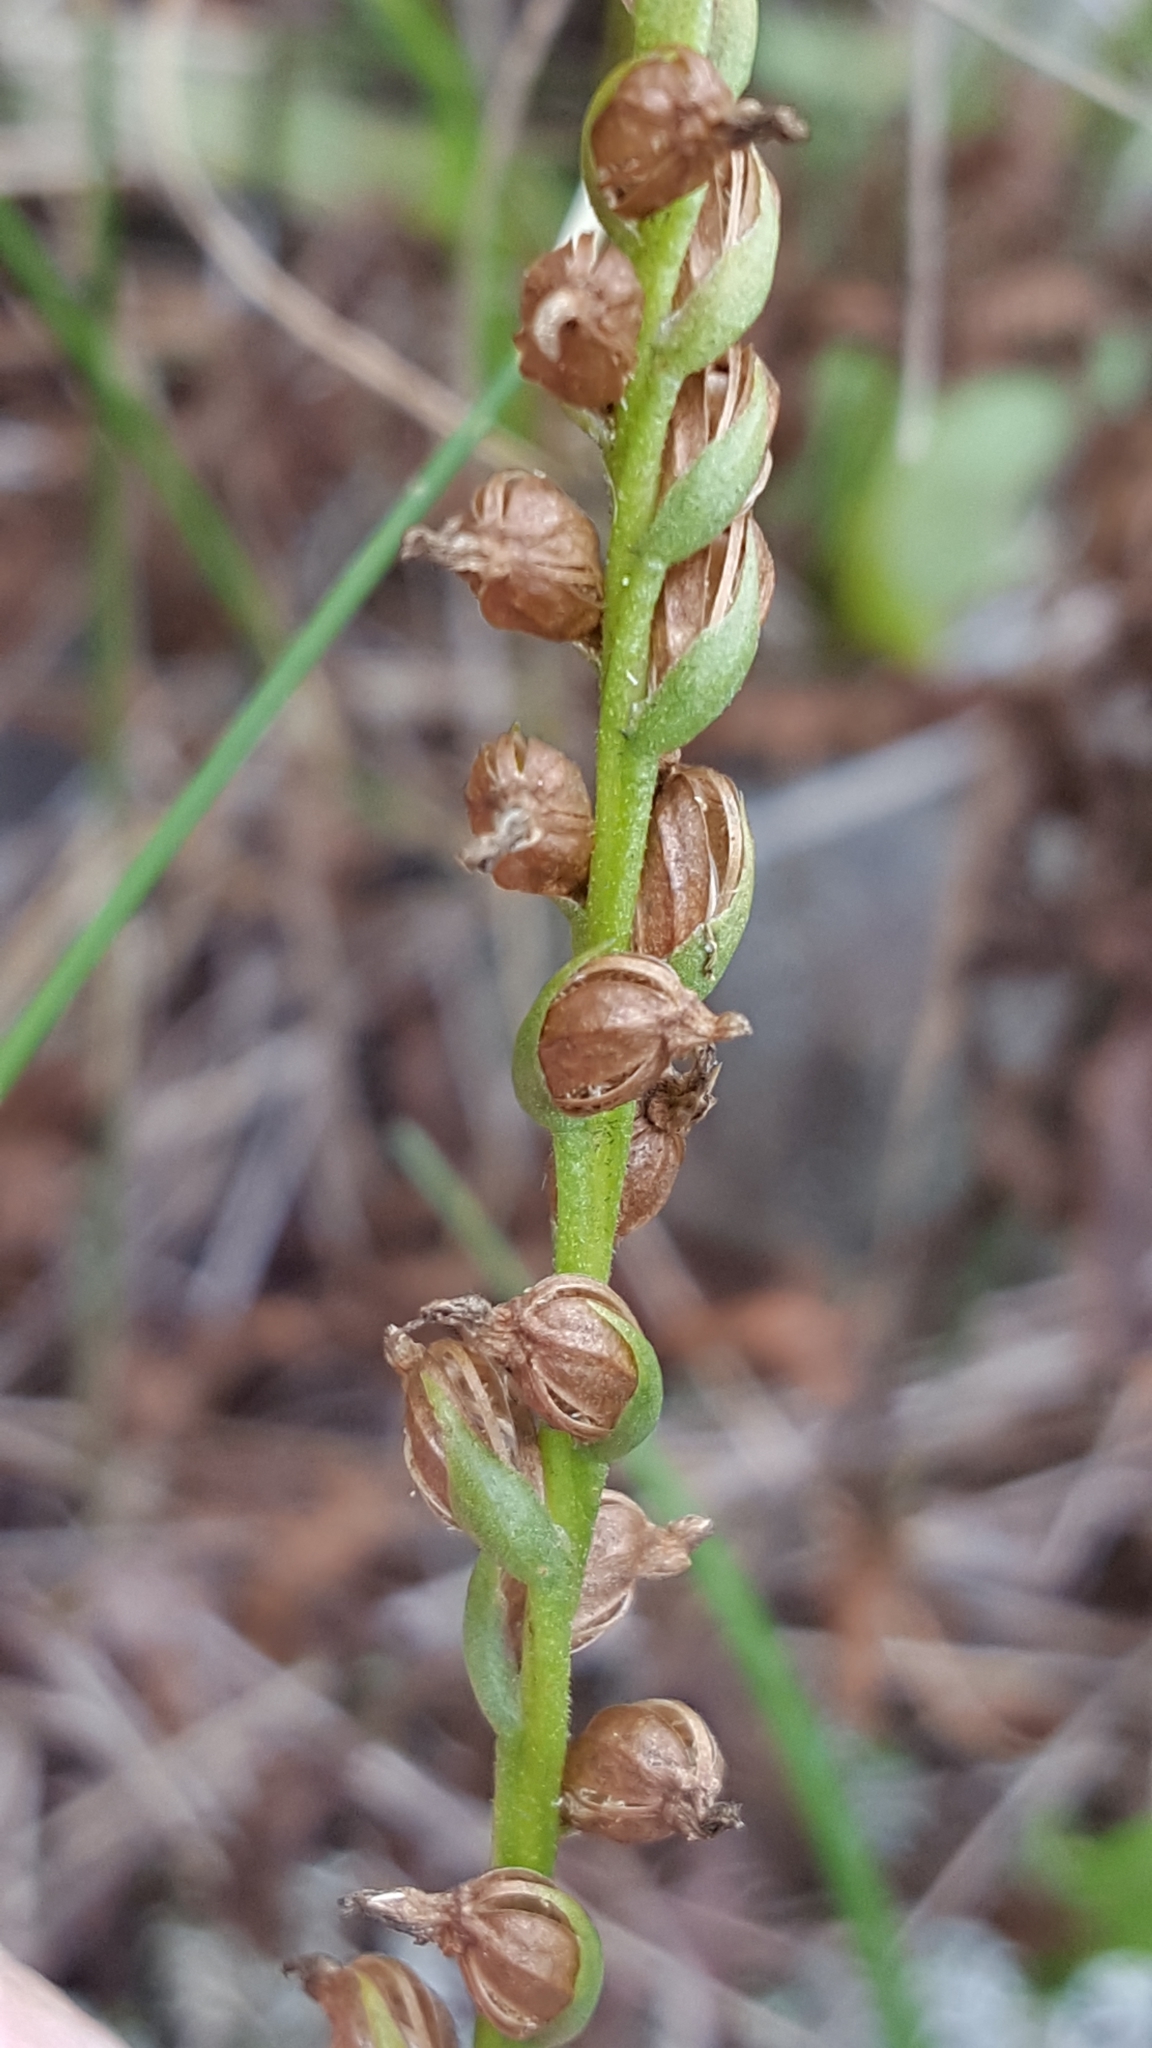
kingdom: Plantae
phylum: Tracheophyta
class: Liliopsida
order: Asparagales
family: Orchidaceae
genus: Spiranthes
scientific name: Spiranthes lacera
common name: Northern slender ladies'-tresses
